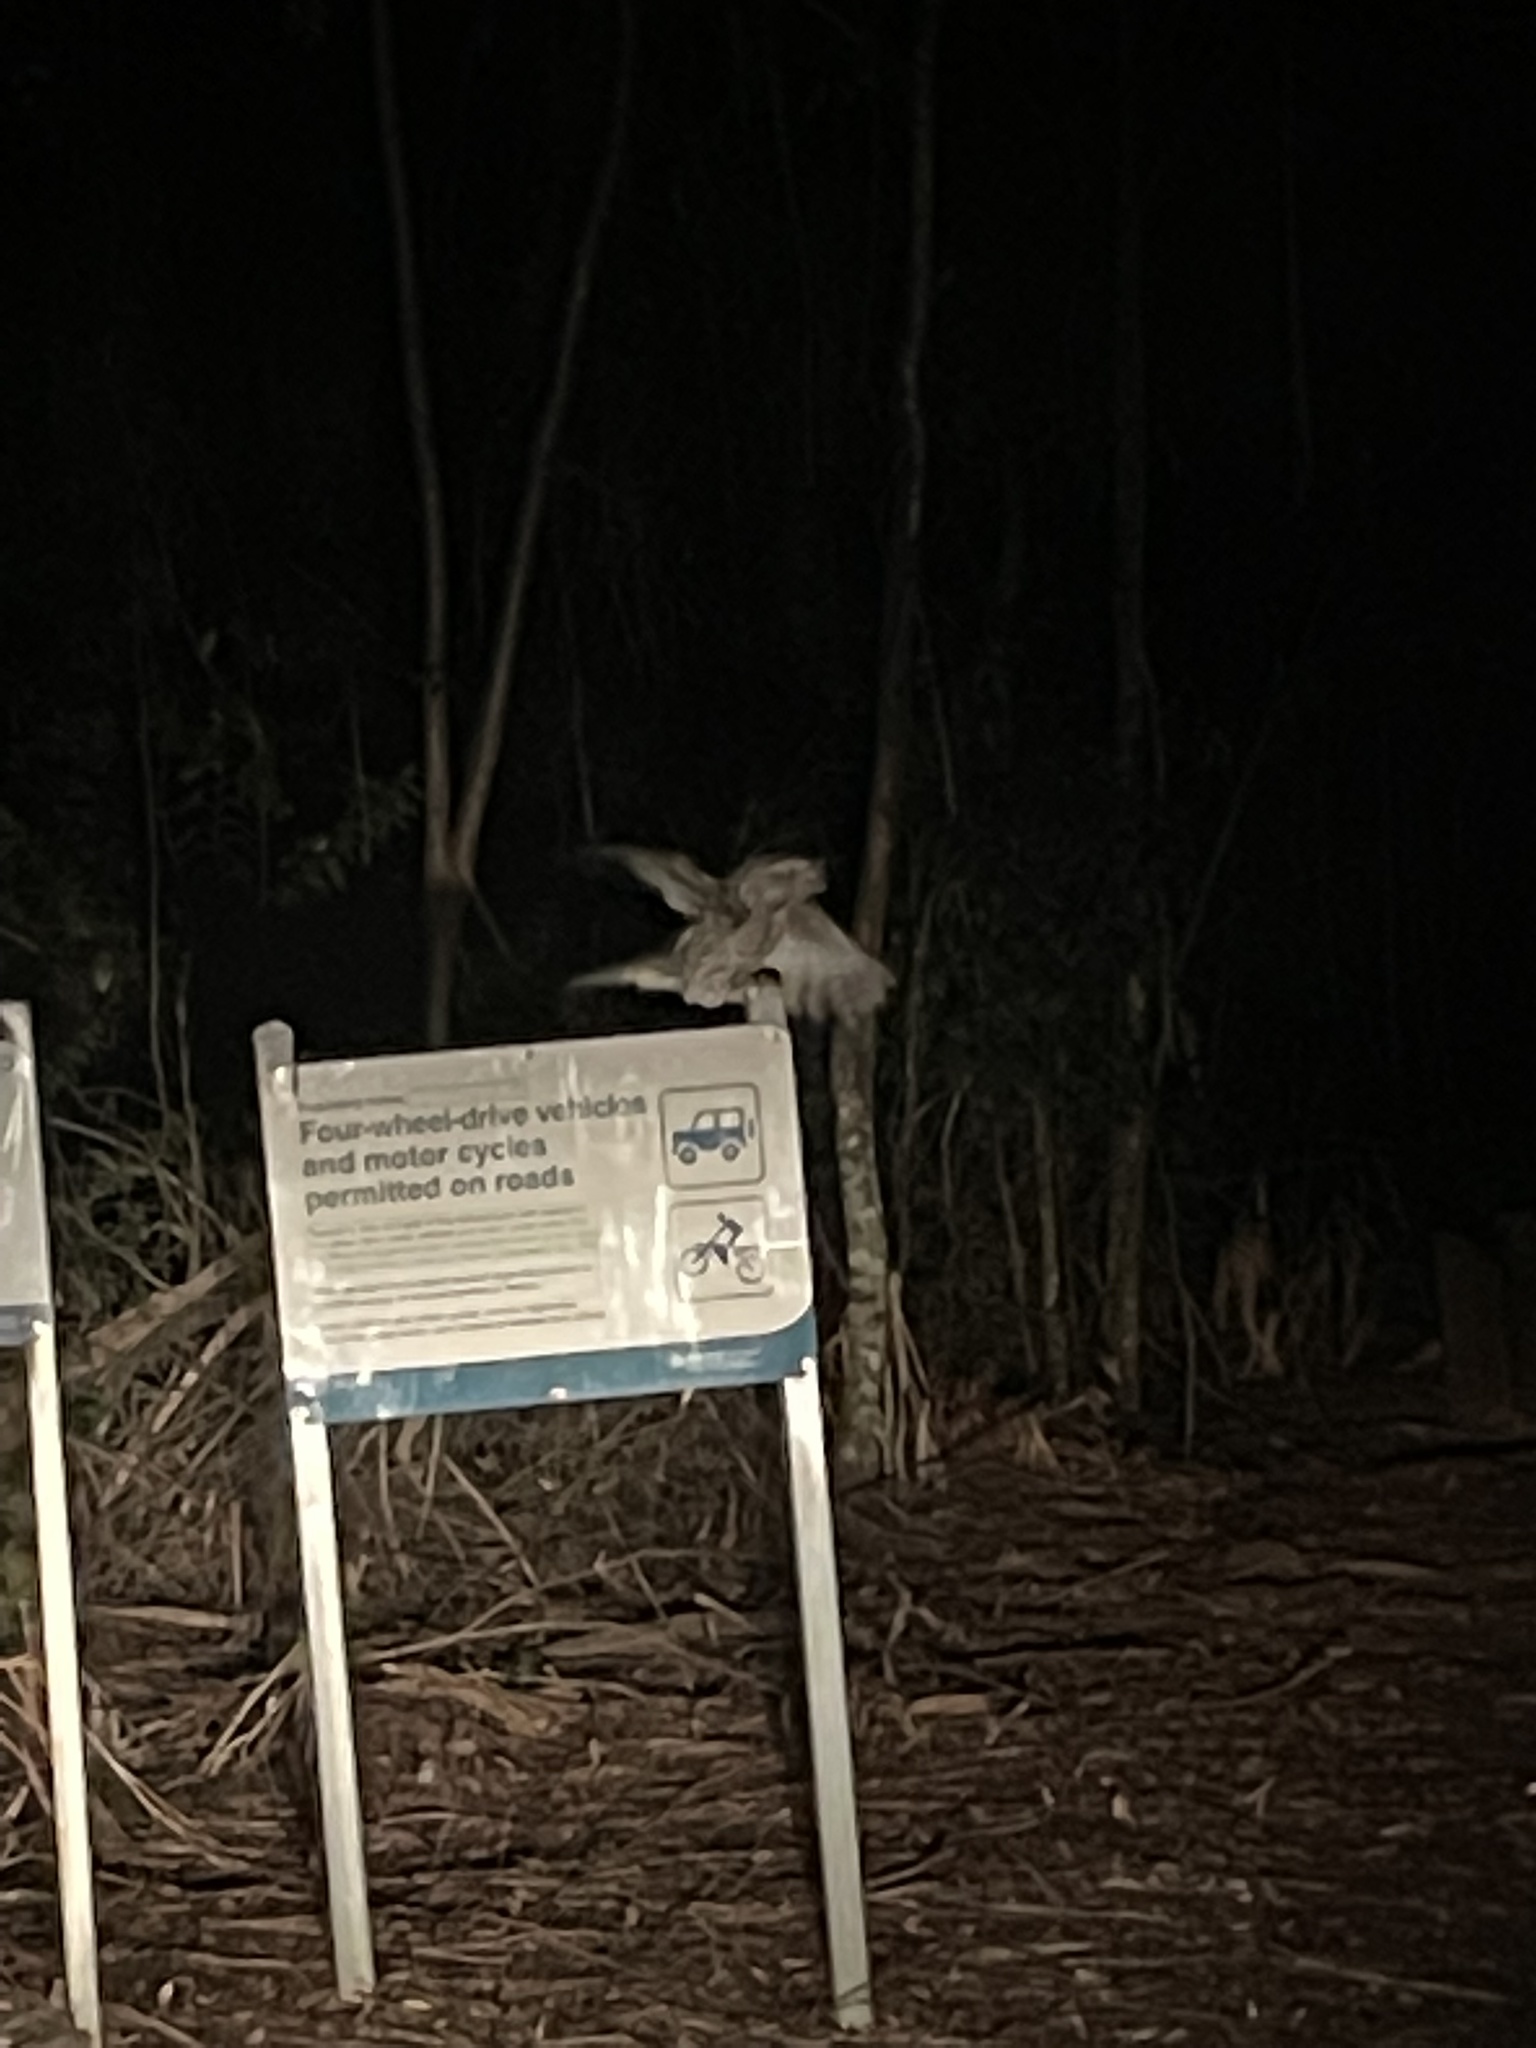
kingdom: Animalia
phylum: Chordata
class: Aves
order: Caprimulgiformes
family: Podargidae
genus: Podargus
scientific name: Podargus strigoides
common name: Tawny frogmouth
